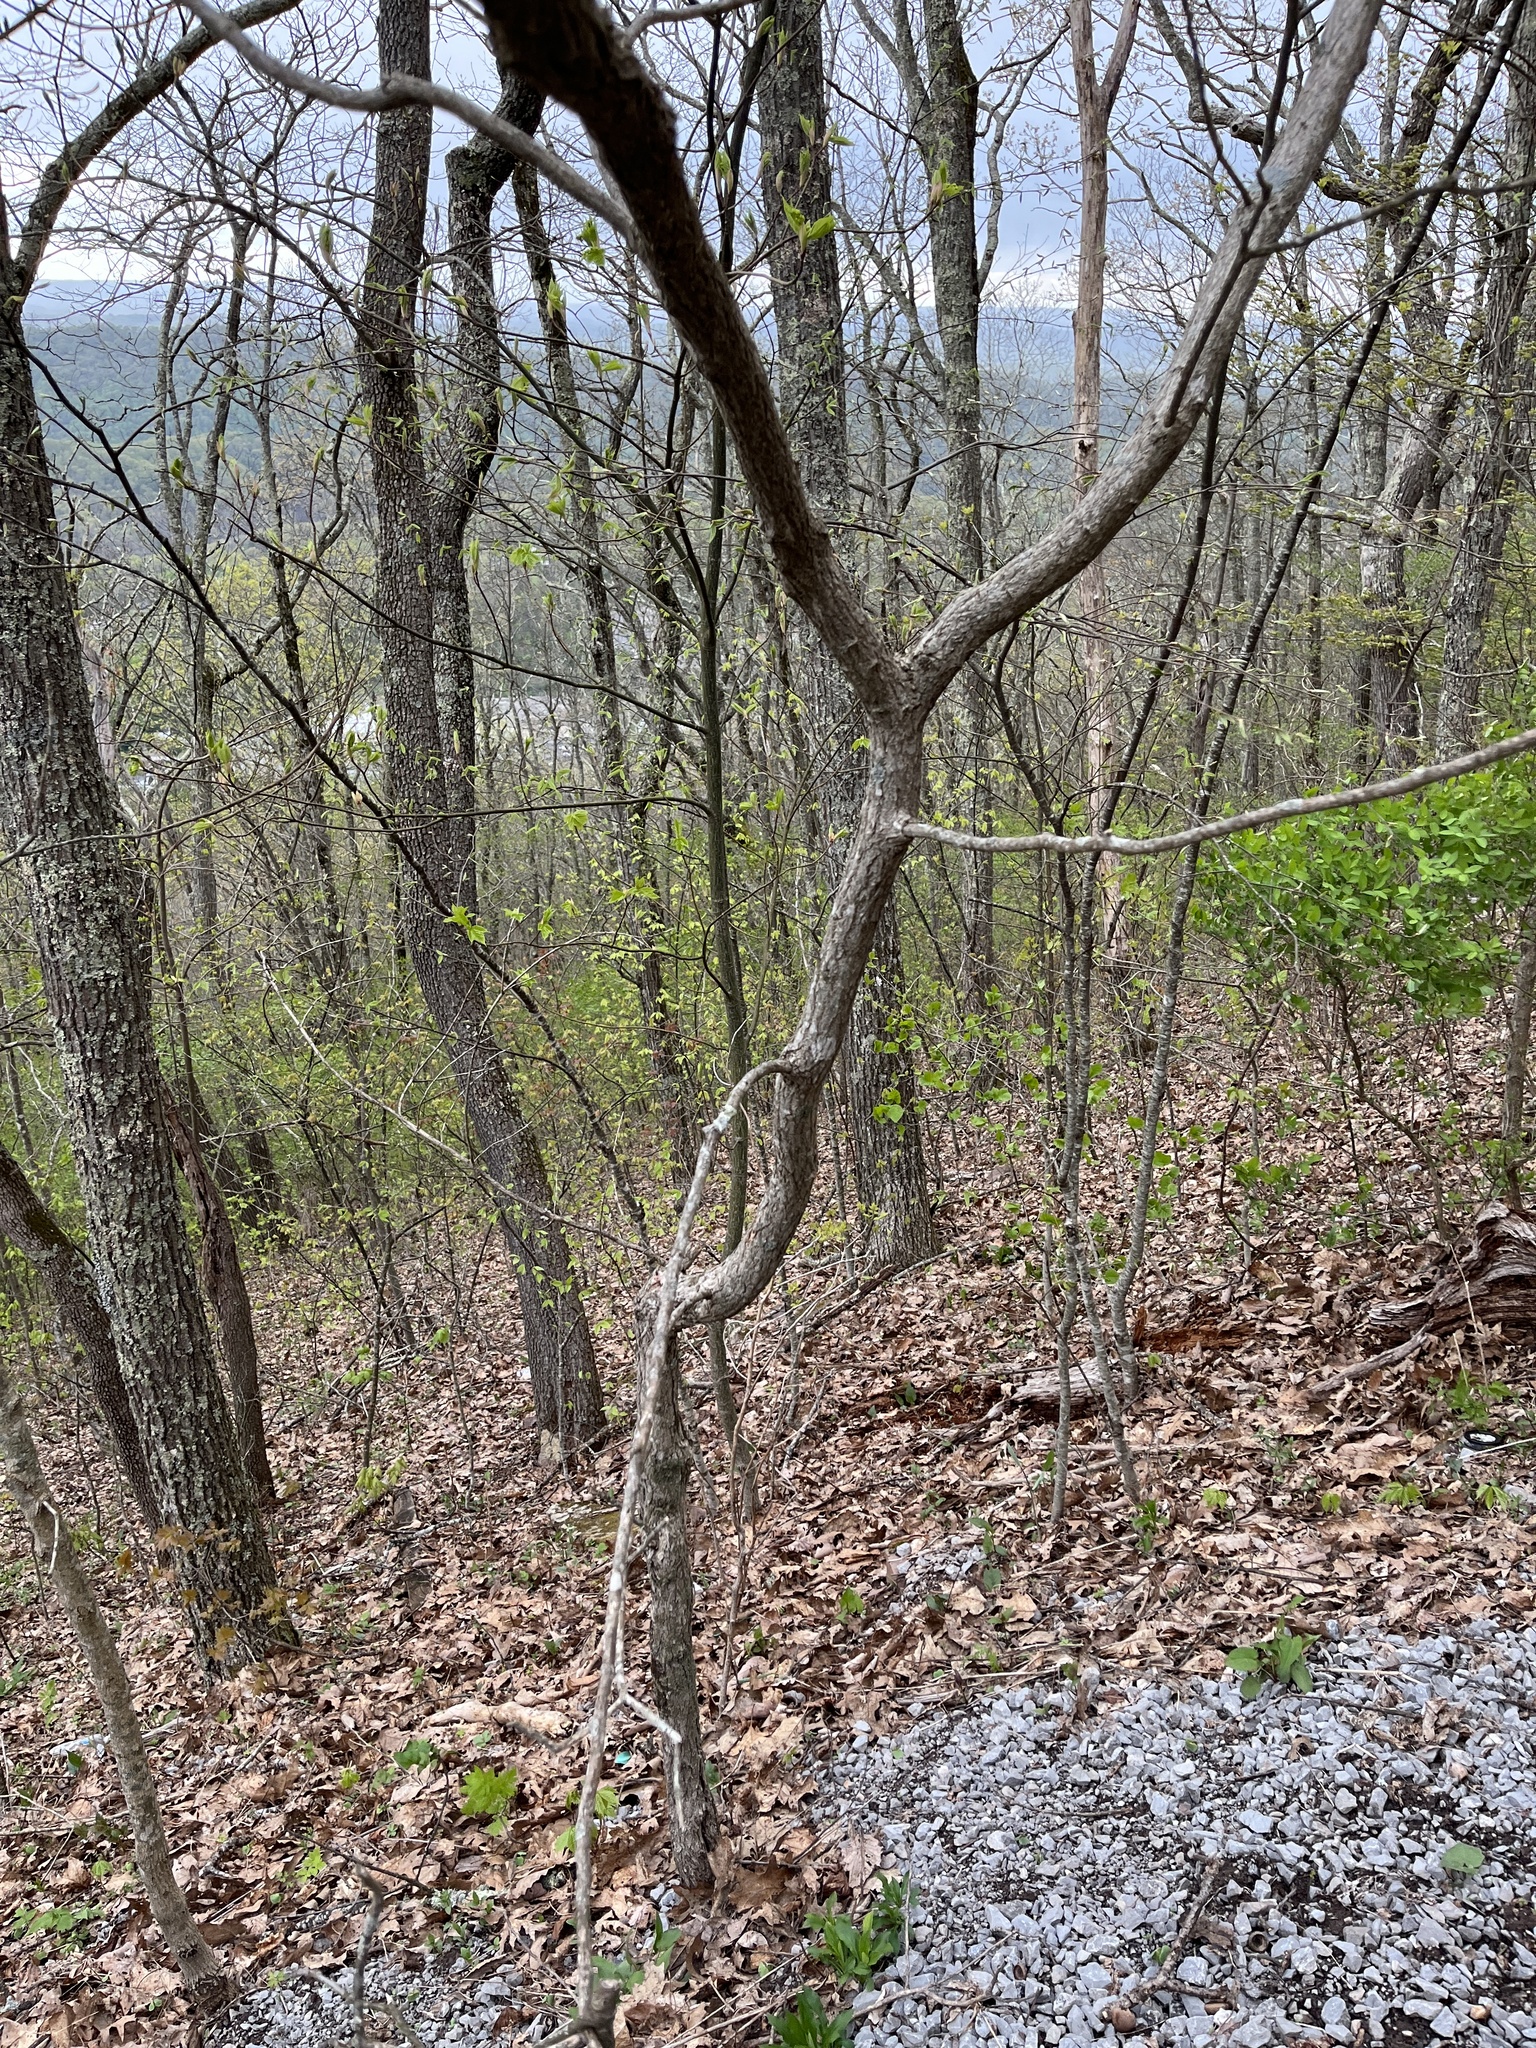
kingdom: Plantae
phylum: Tracheophyta
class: Magnoliopsida
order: Laurales
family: Lauraceae
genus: Sassafras
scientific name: Sassafras albidum
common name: Sassafras
